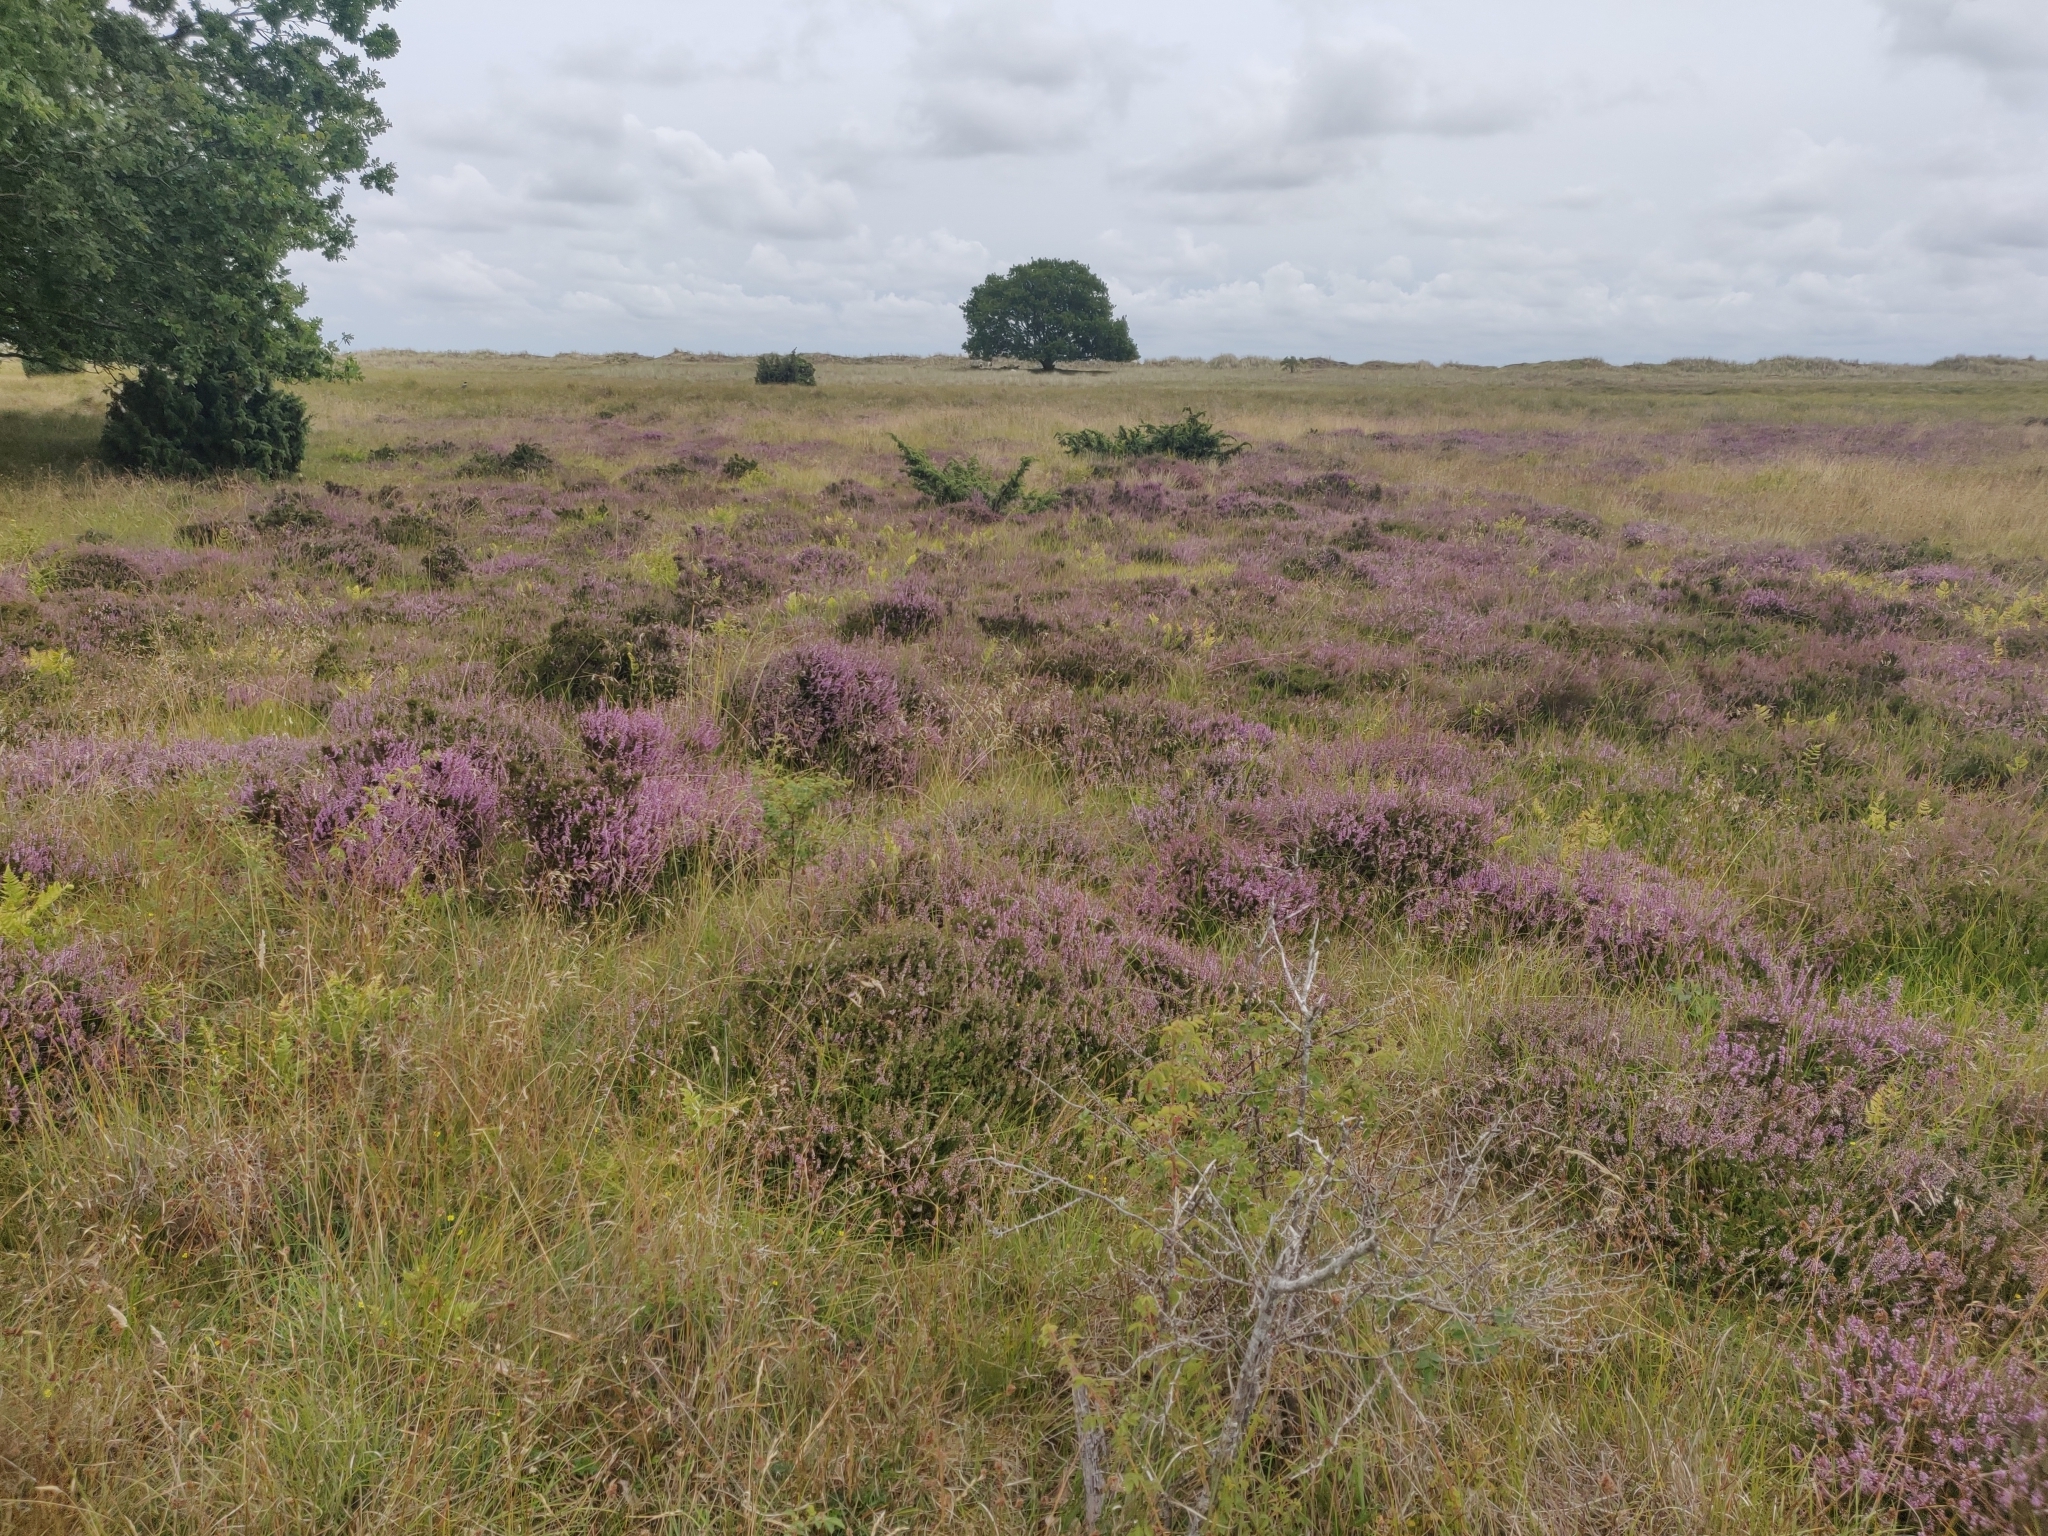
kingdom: Plantae
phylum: Tracheophyta
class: Magnoliopsida
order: Ericales
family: Ericaceae
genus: Calluna
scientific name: Calluna vulgaris
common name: Heather
